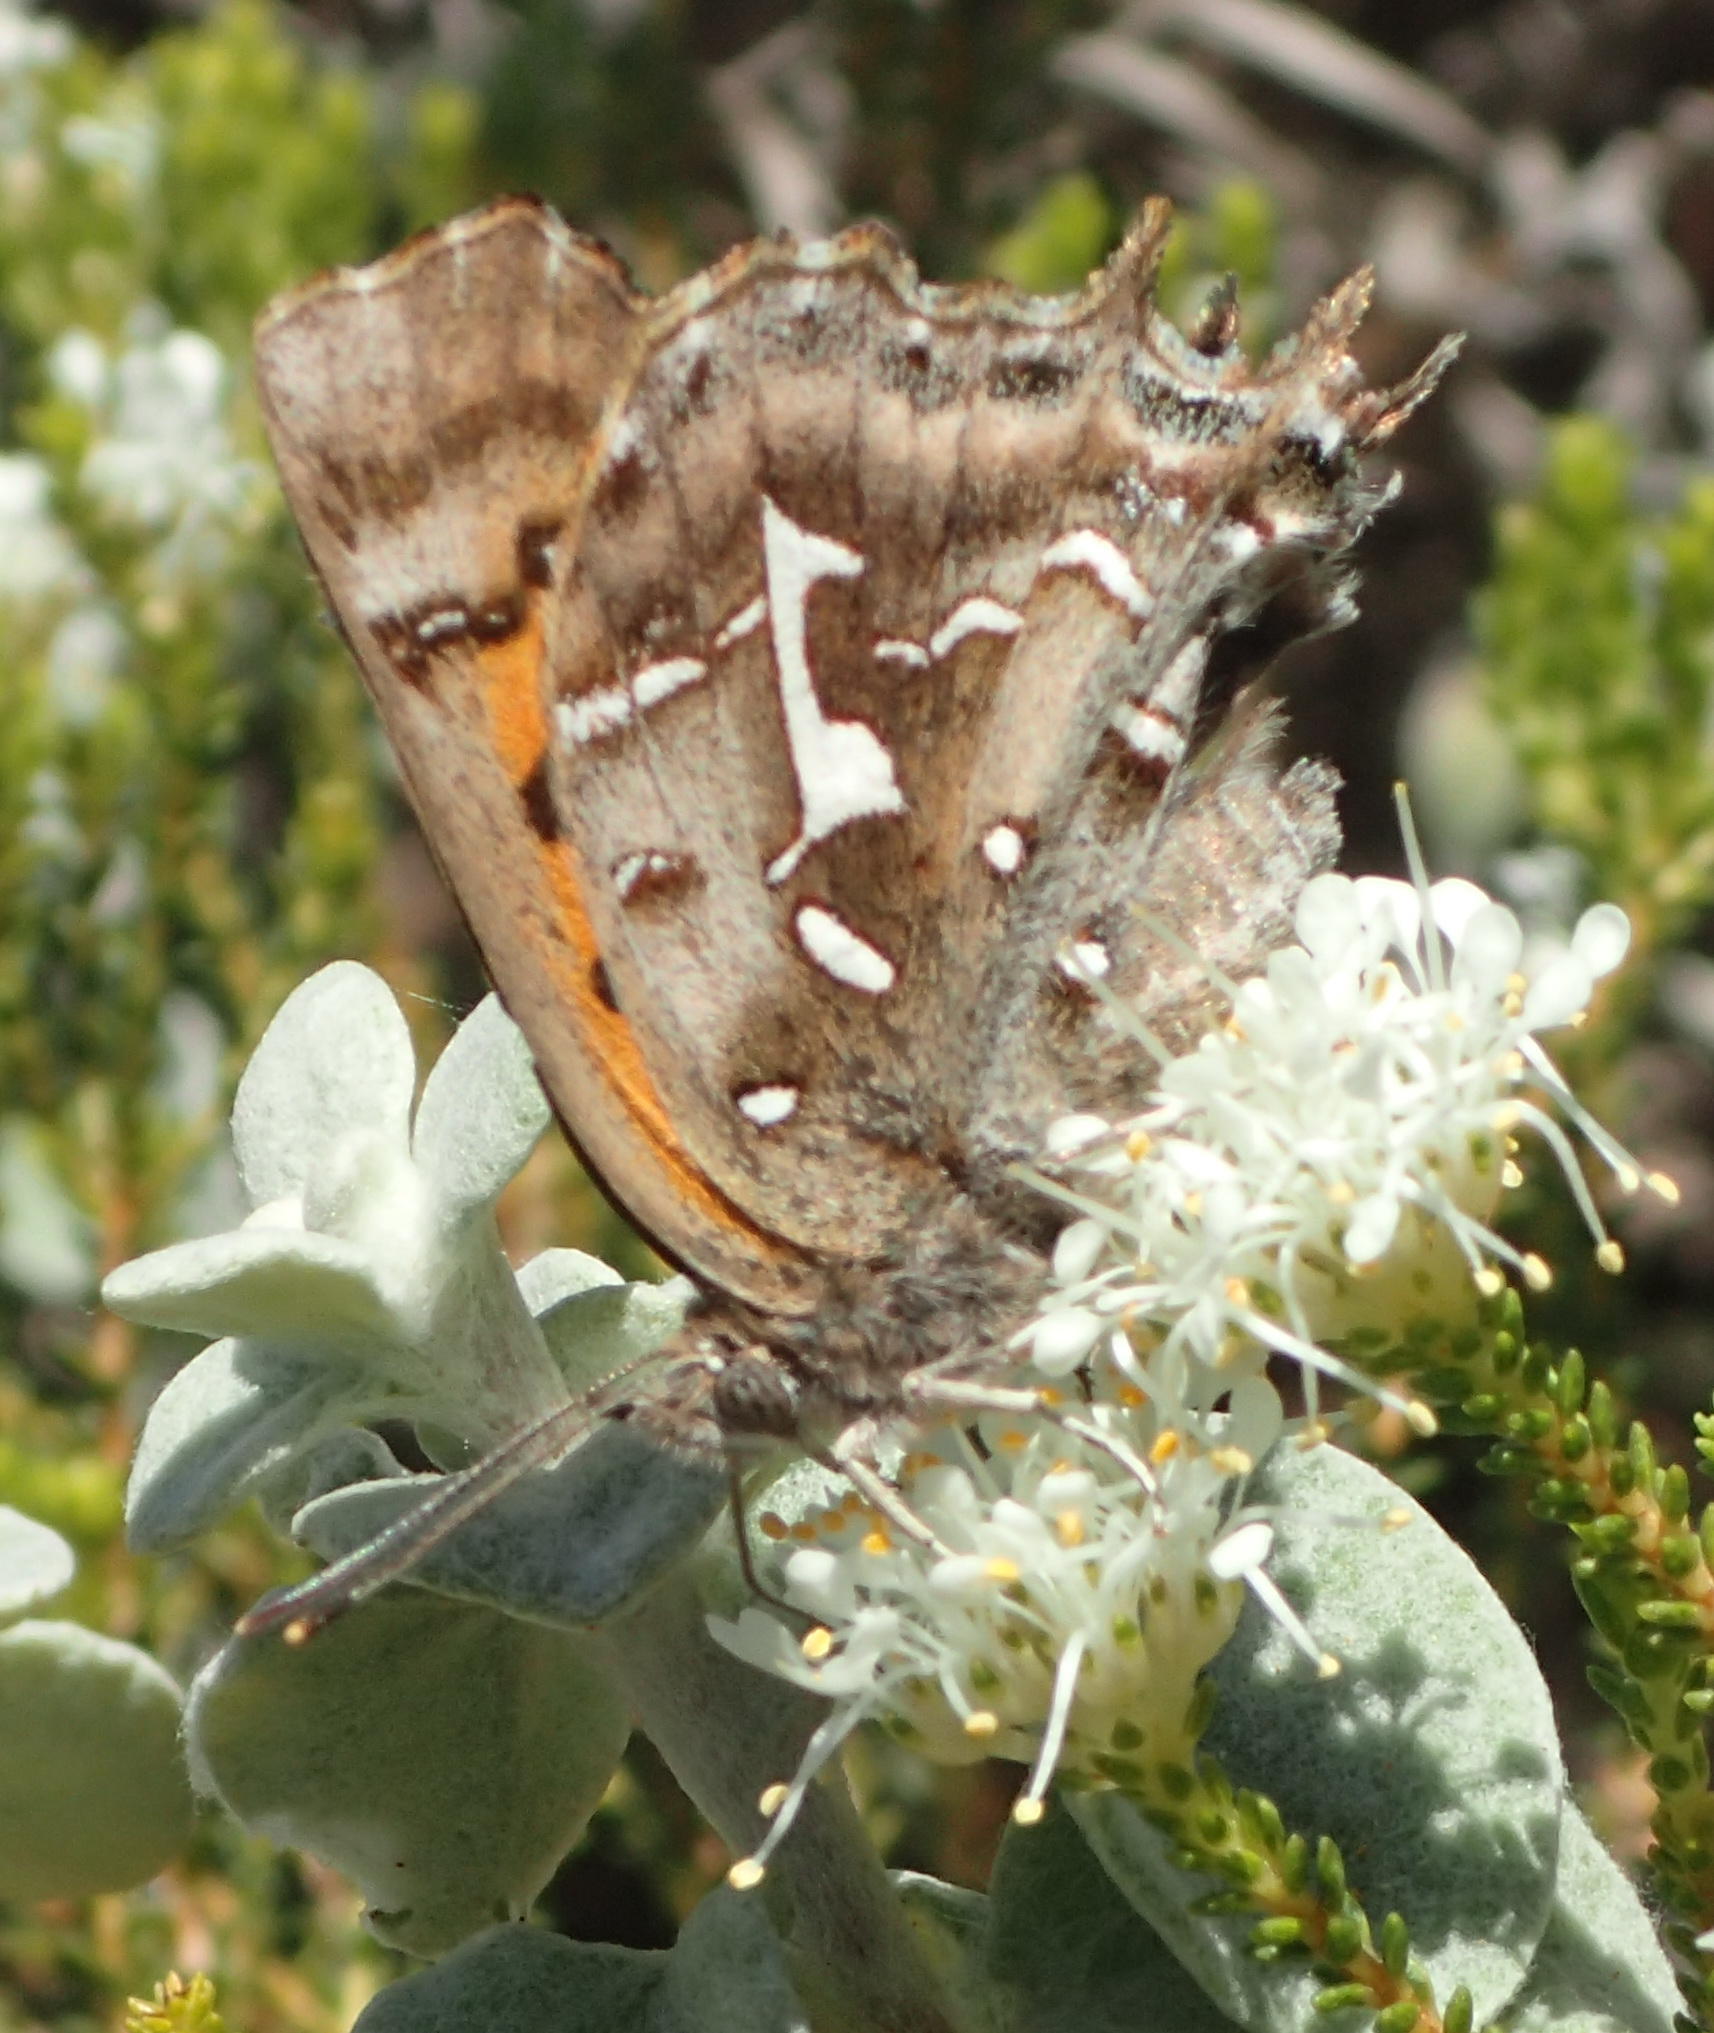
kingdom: Animalia
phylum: Arthropoda
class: Insecta
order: Lepidoptera
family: Lycaenidae
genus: Phasis
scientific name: Phasis thero
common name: Silver arrowhead
